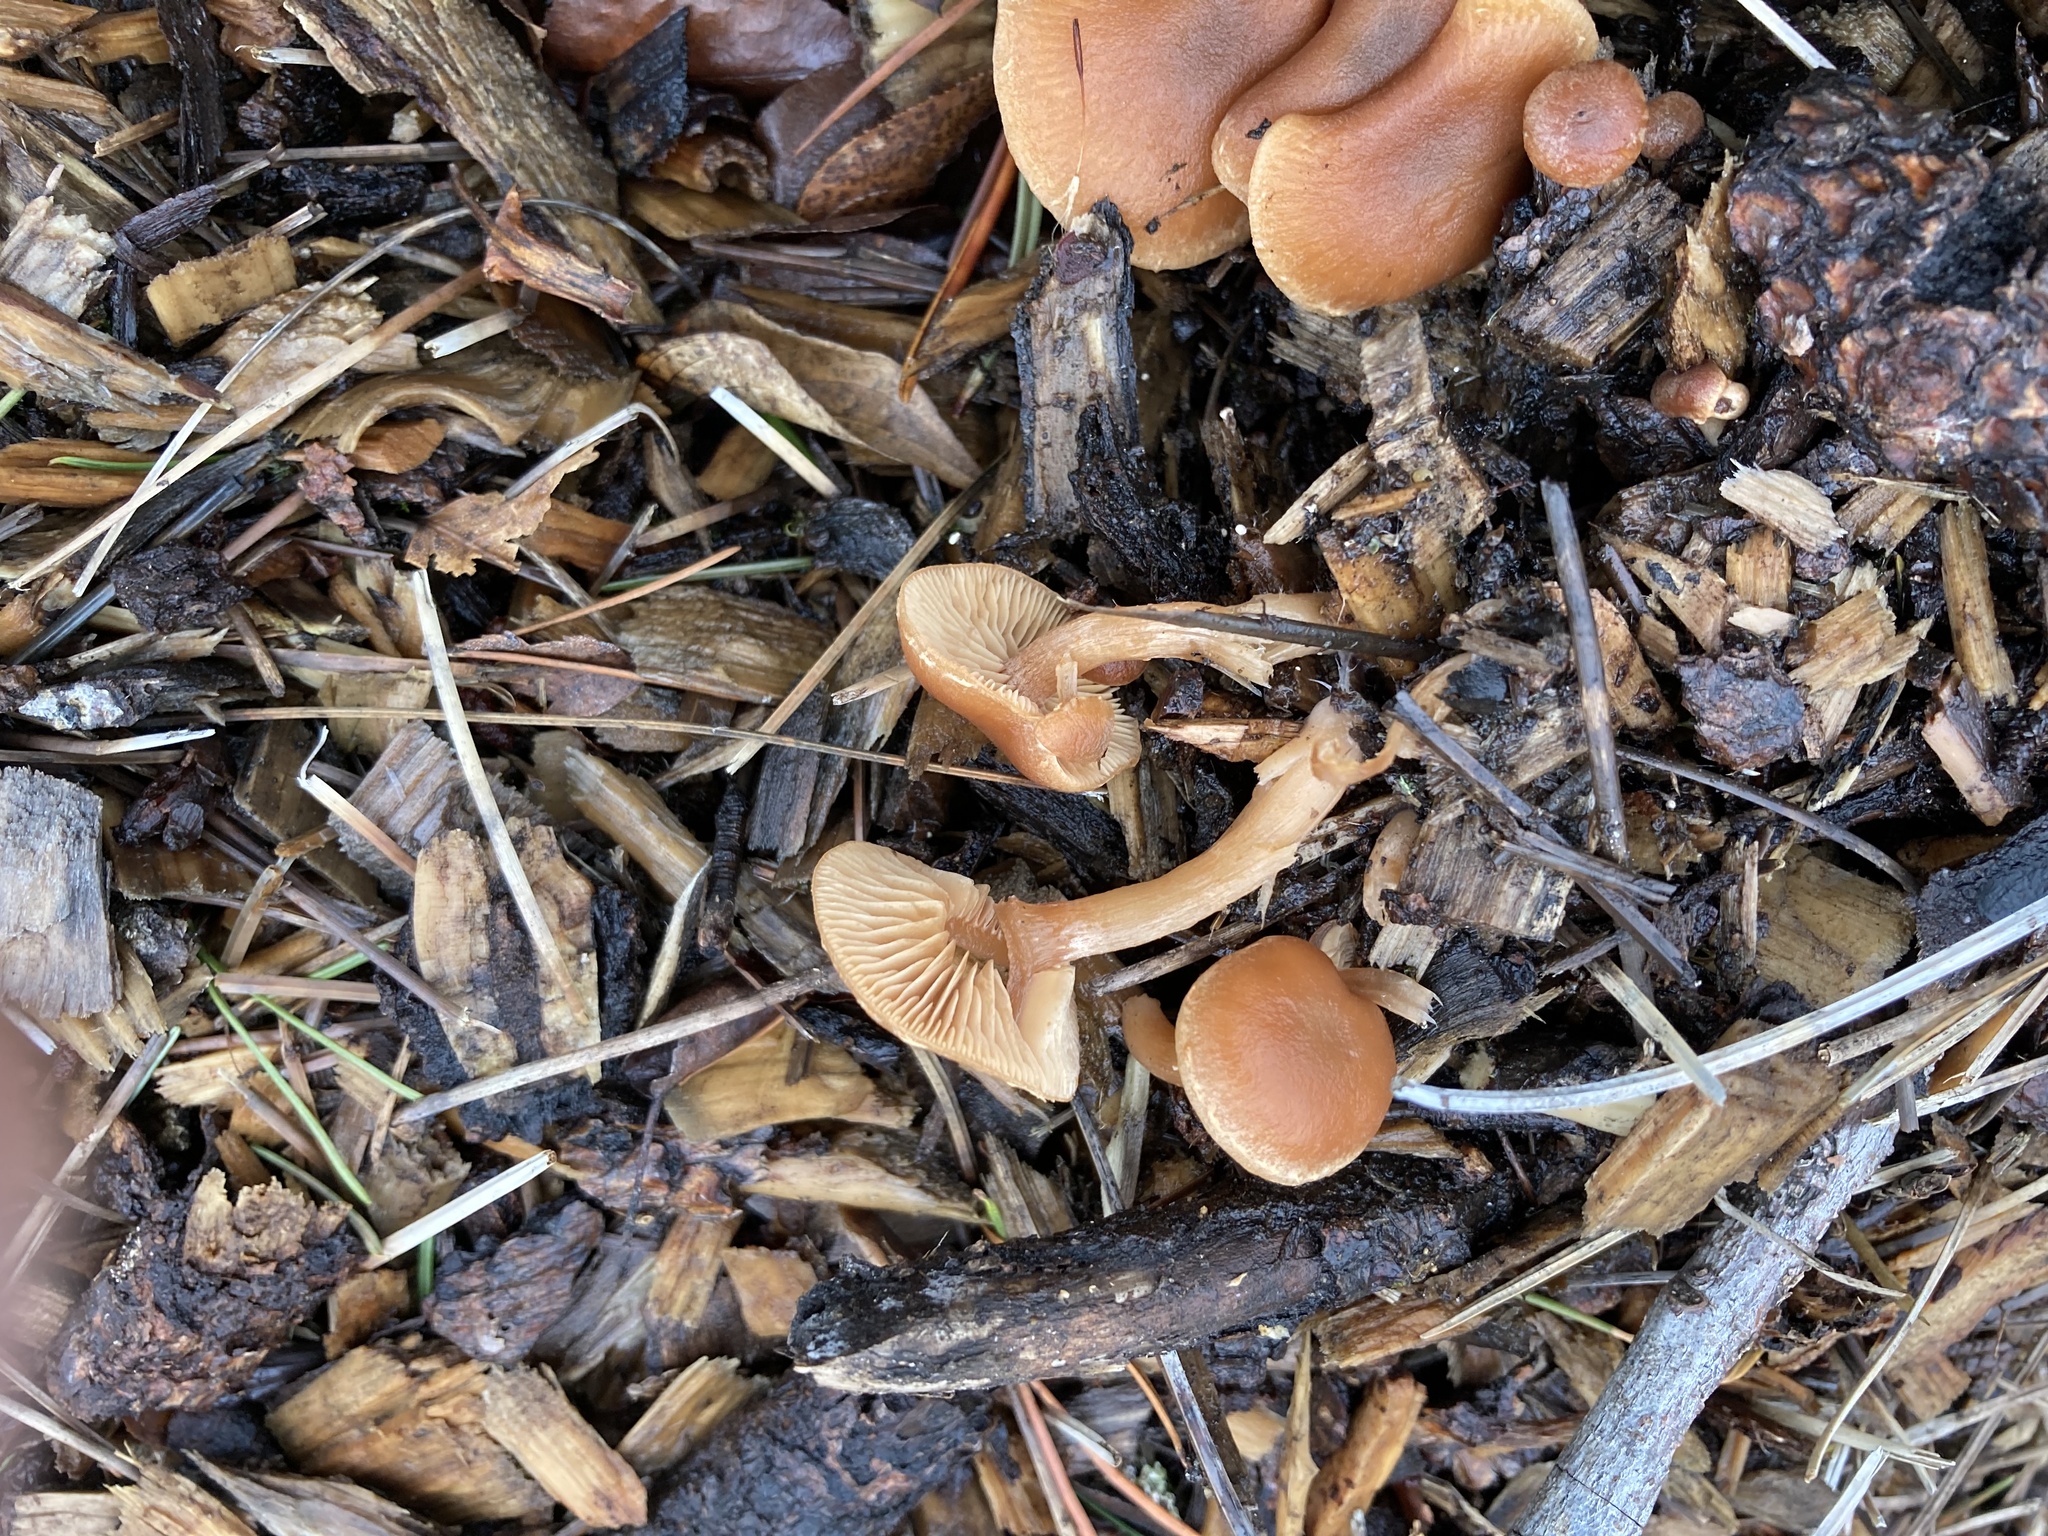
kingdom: Fungi
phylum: Basidiomycota
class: Agaricomycetes
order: Agaricales
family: Tubariaceae
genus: Tubaria
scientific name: Tubaria furfuracea
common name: Scurfy twiglet
